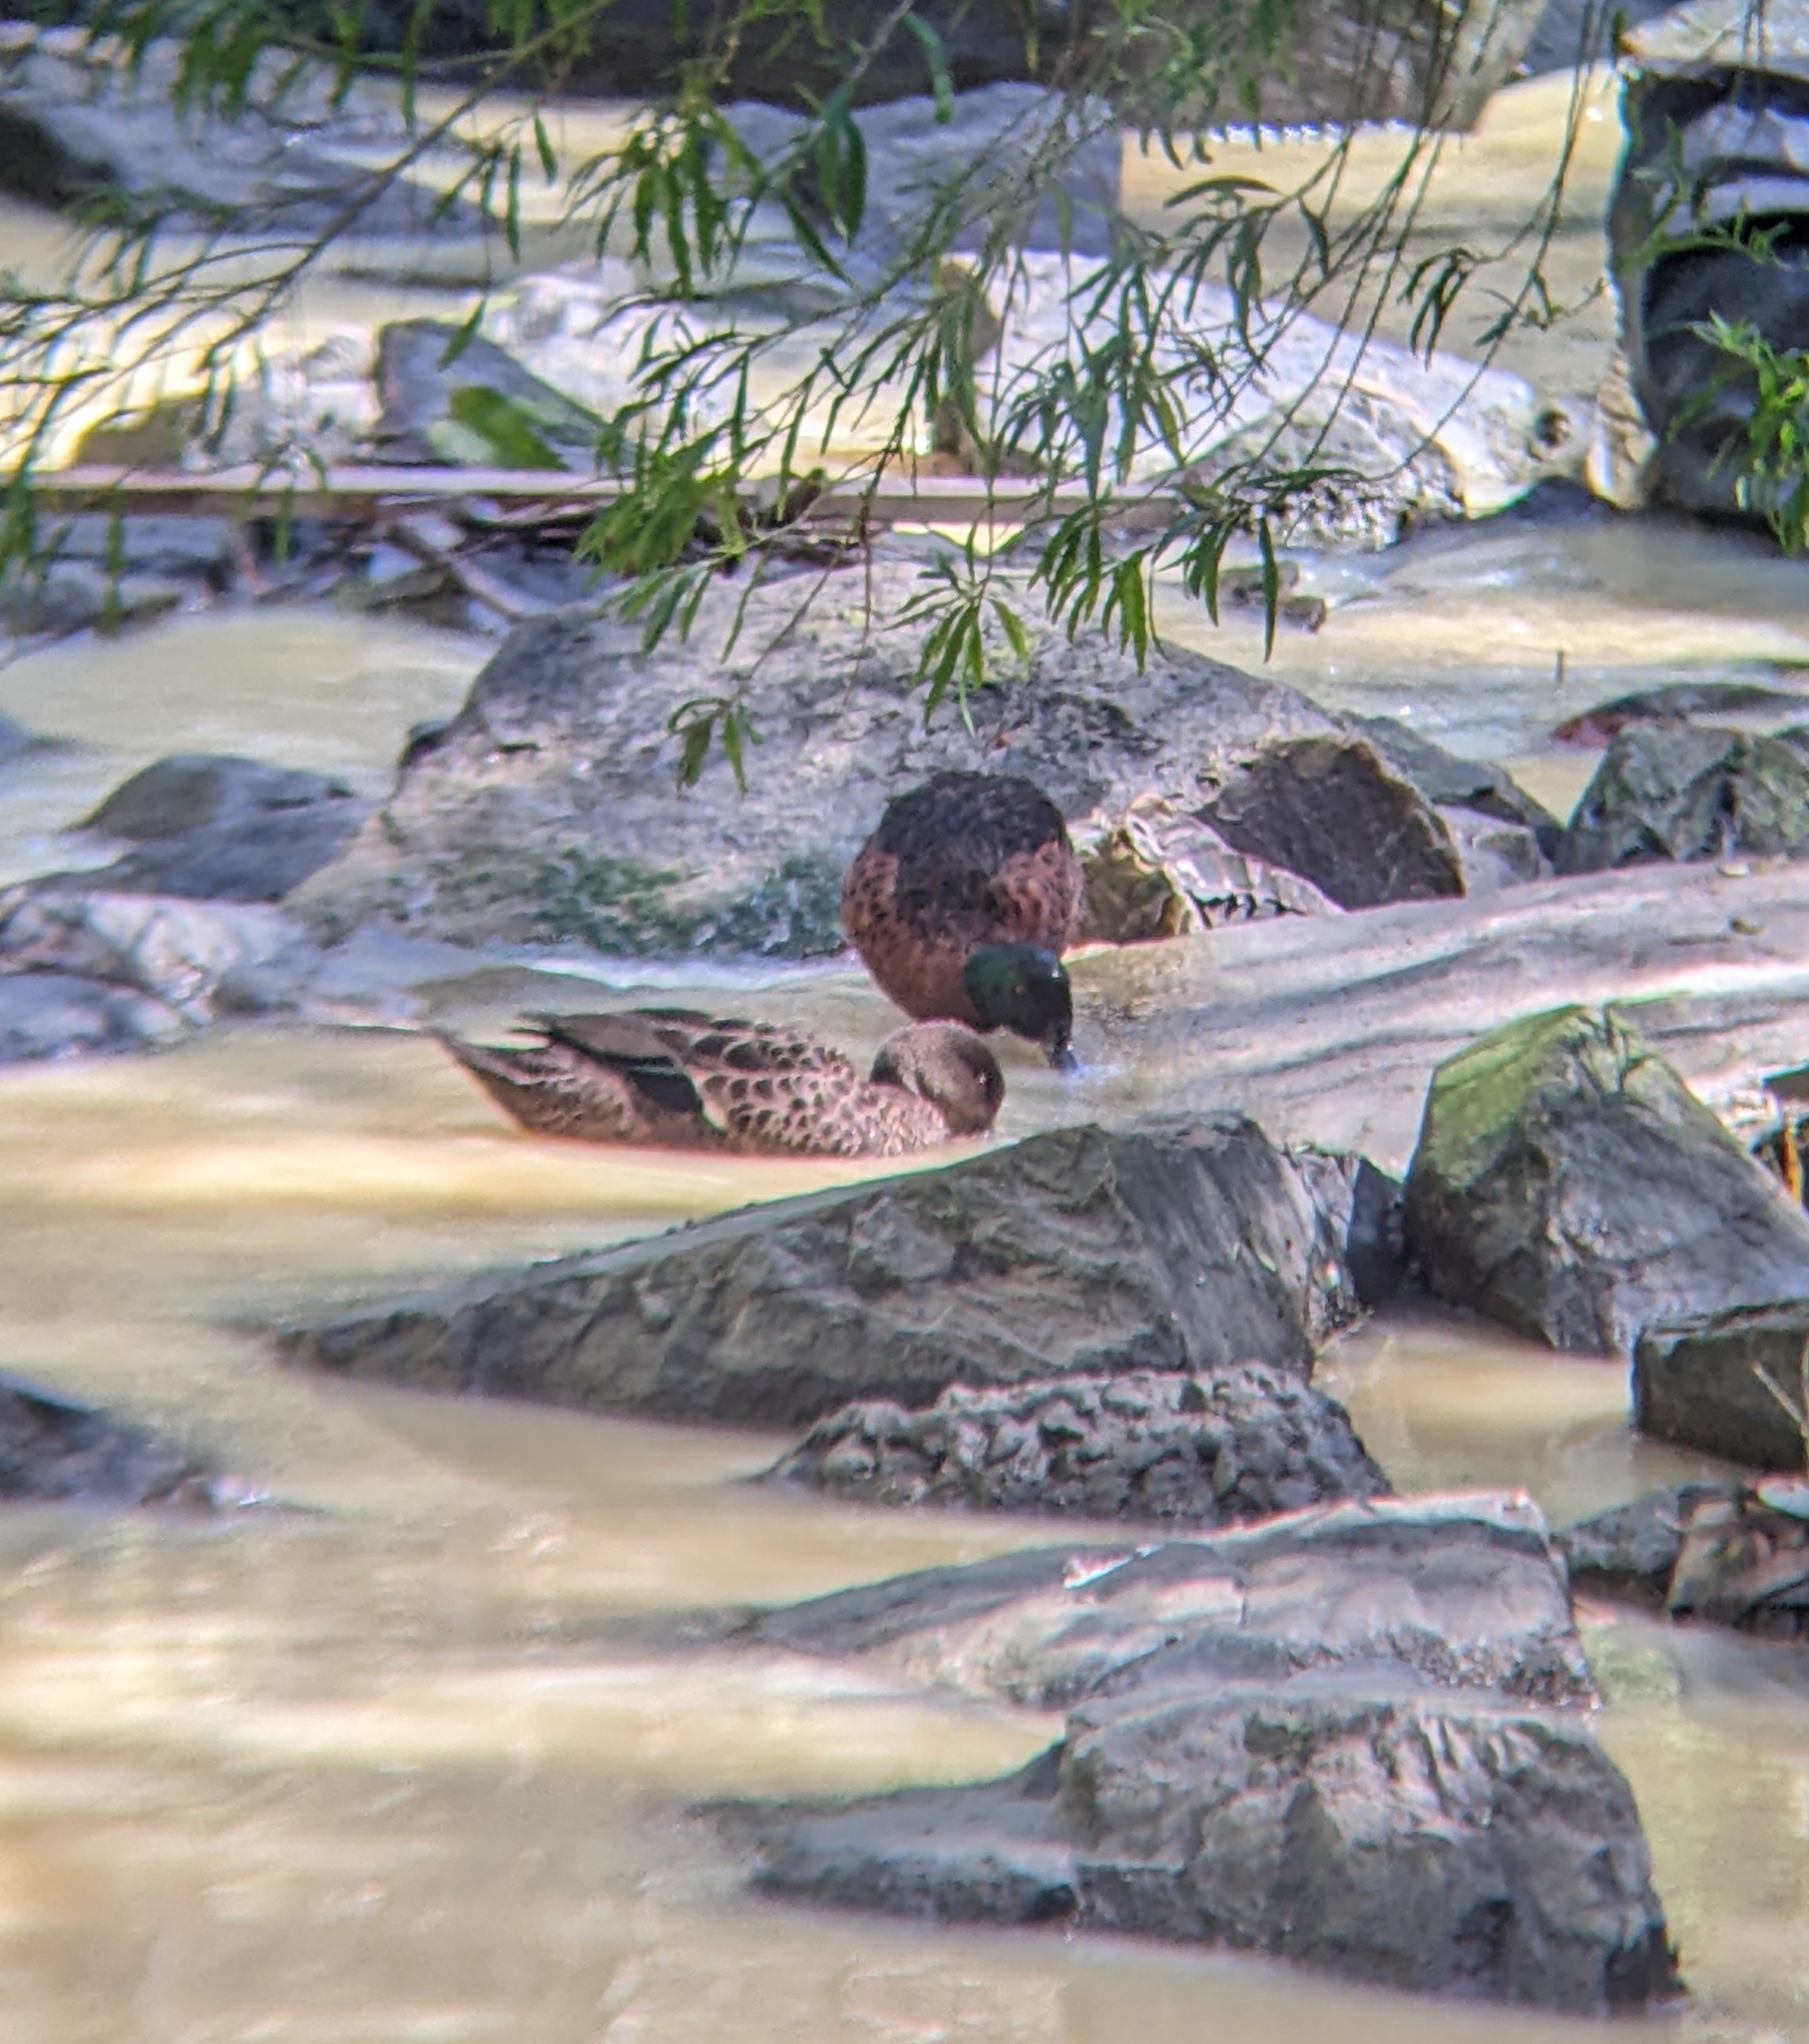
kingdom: Animalia
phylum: Chordata
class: Aves
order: Anseriformes
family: Anatidae
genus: Anas
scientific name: Anas castanea
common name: Chestnut teal
